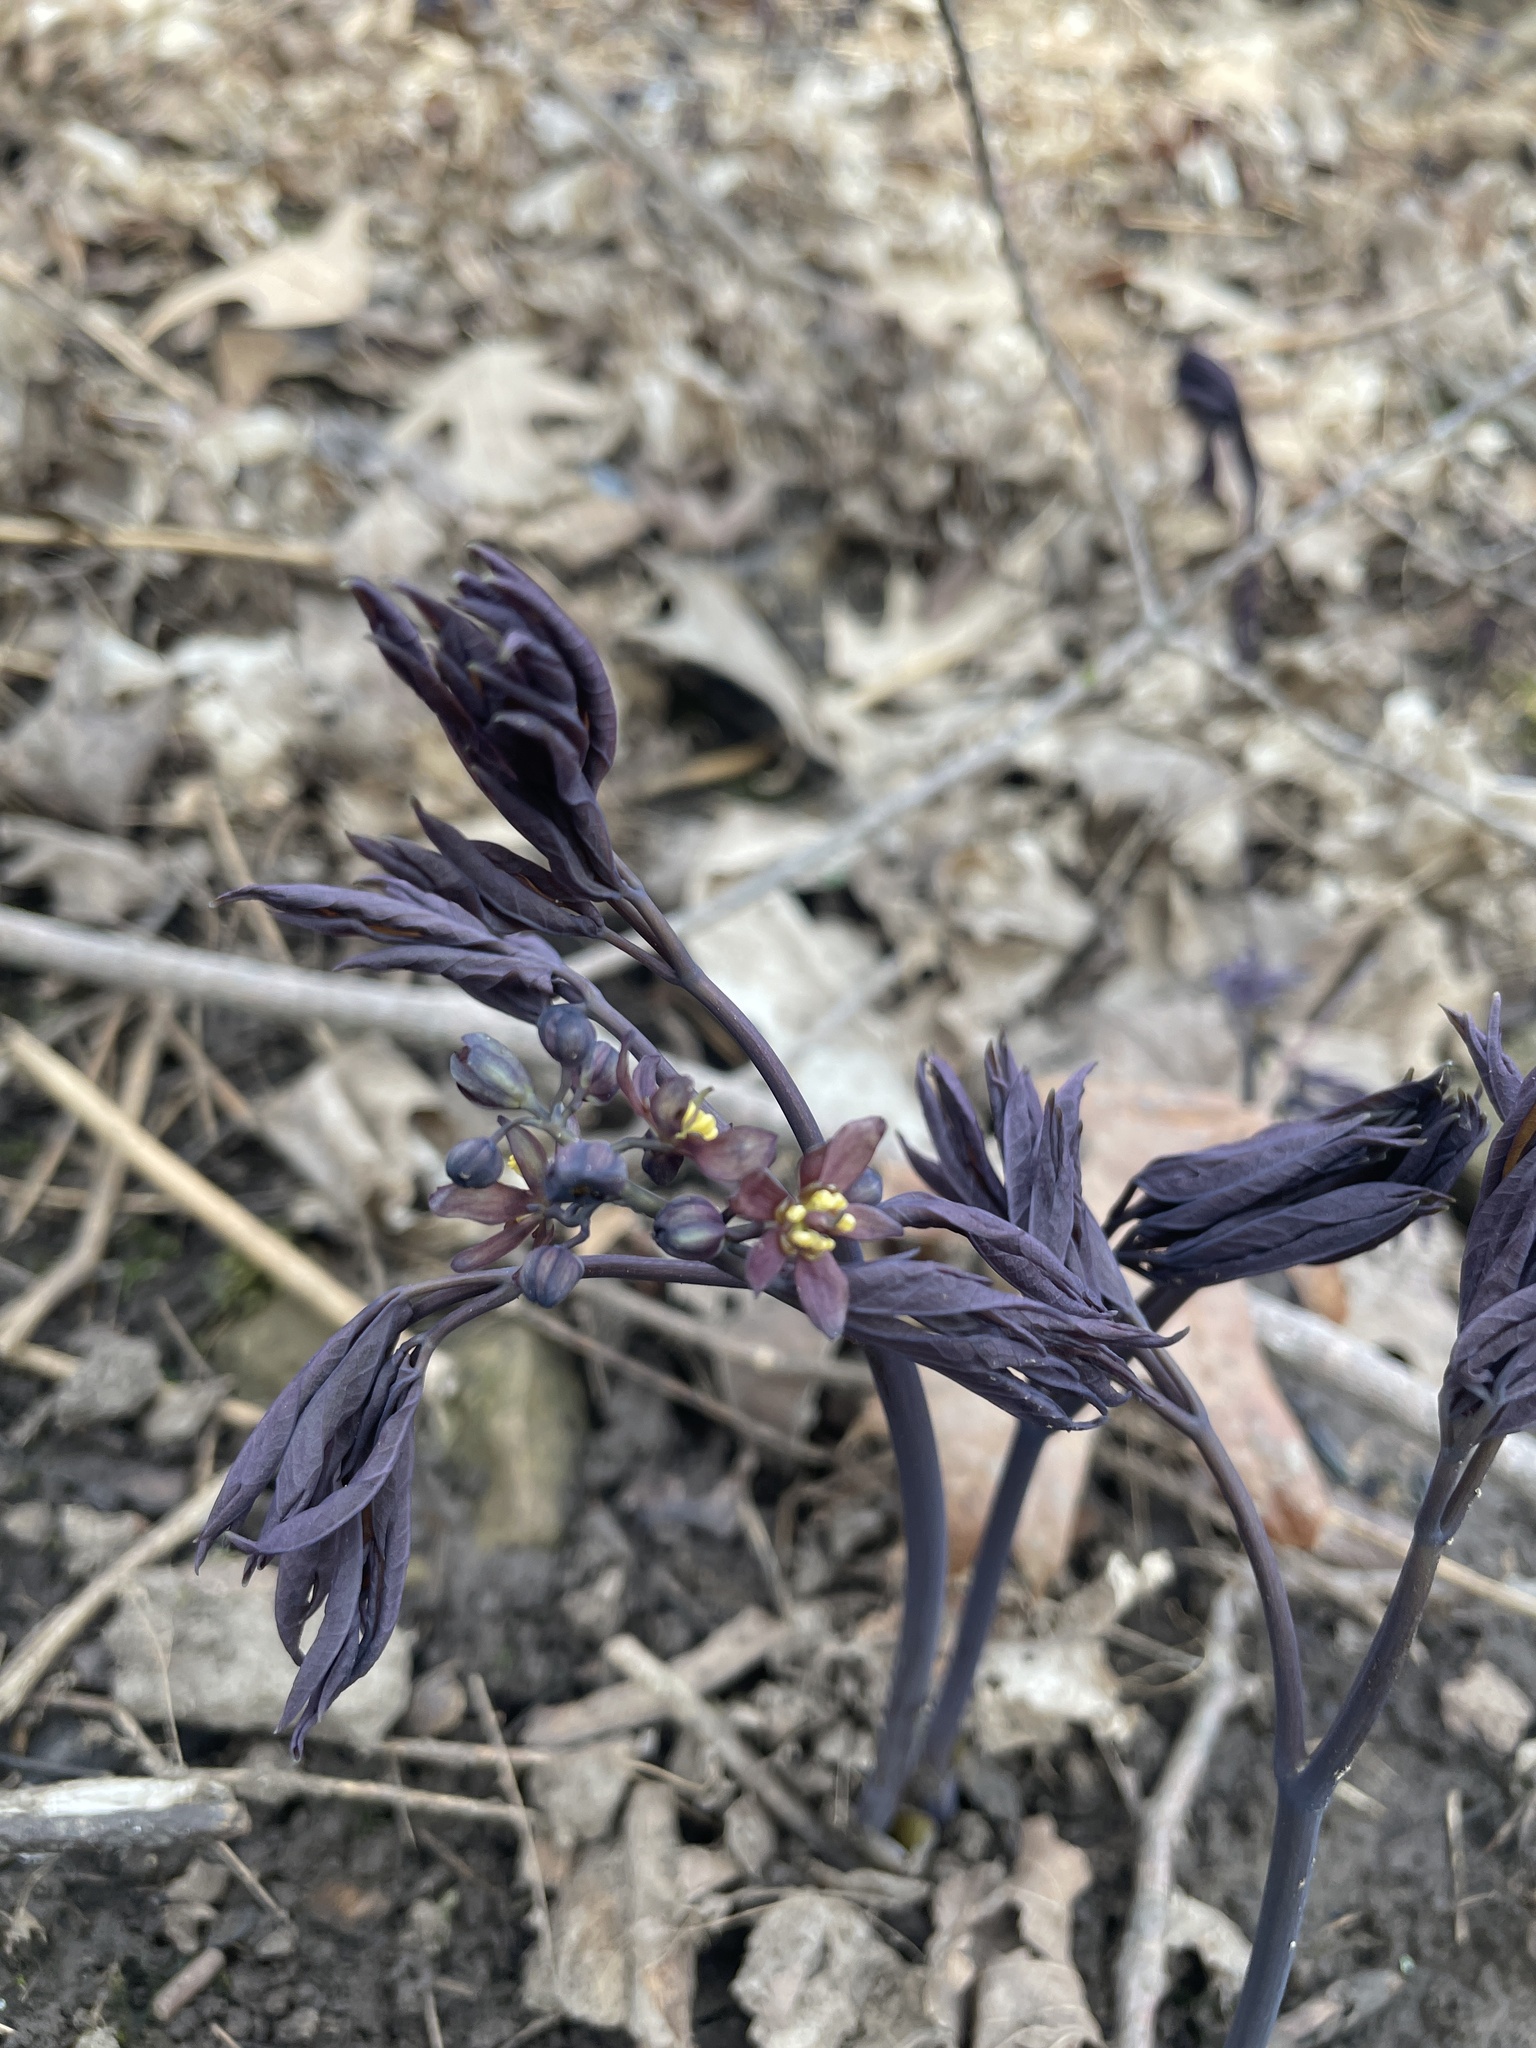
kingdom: Plantae
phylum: Tracheophyta
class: Magnoliopsida
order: Ranunculales
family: Berberidaceae
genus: Caulophyllum
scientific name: Caulophyllum giganteum
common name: Blue cohosh
